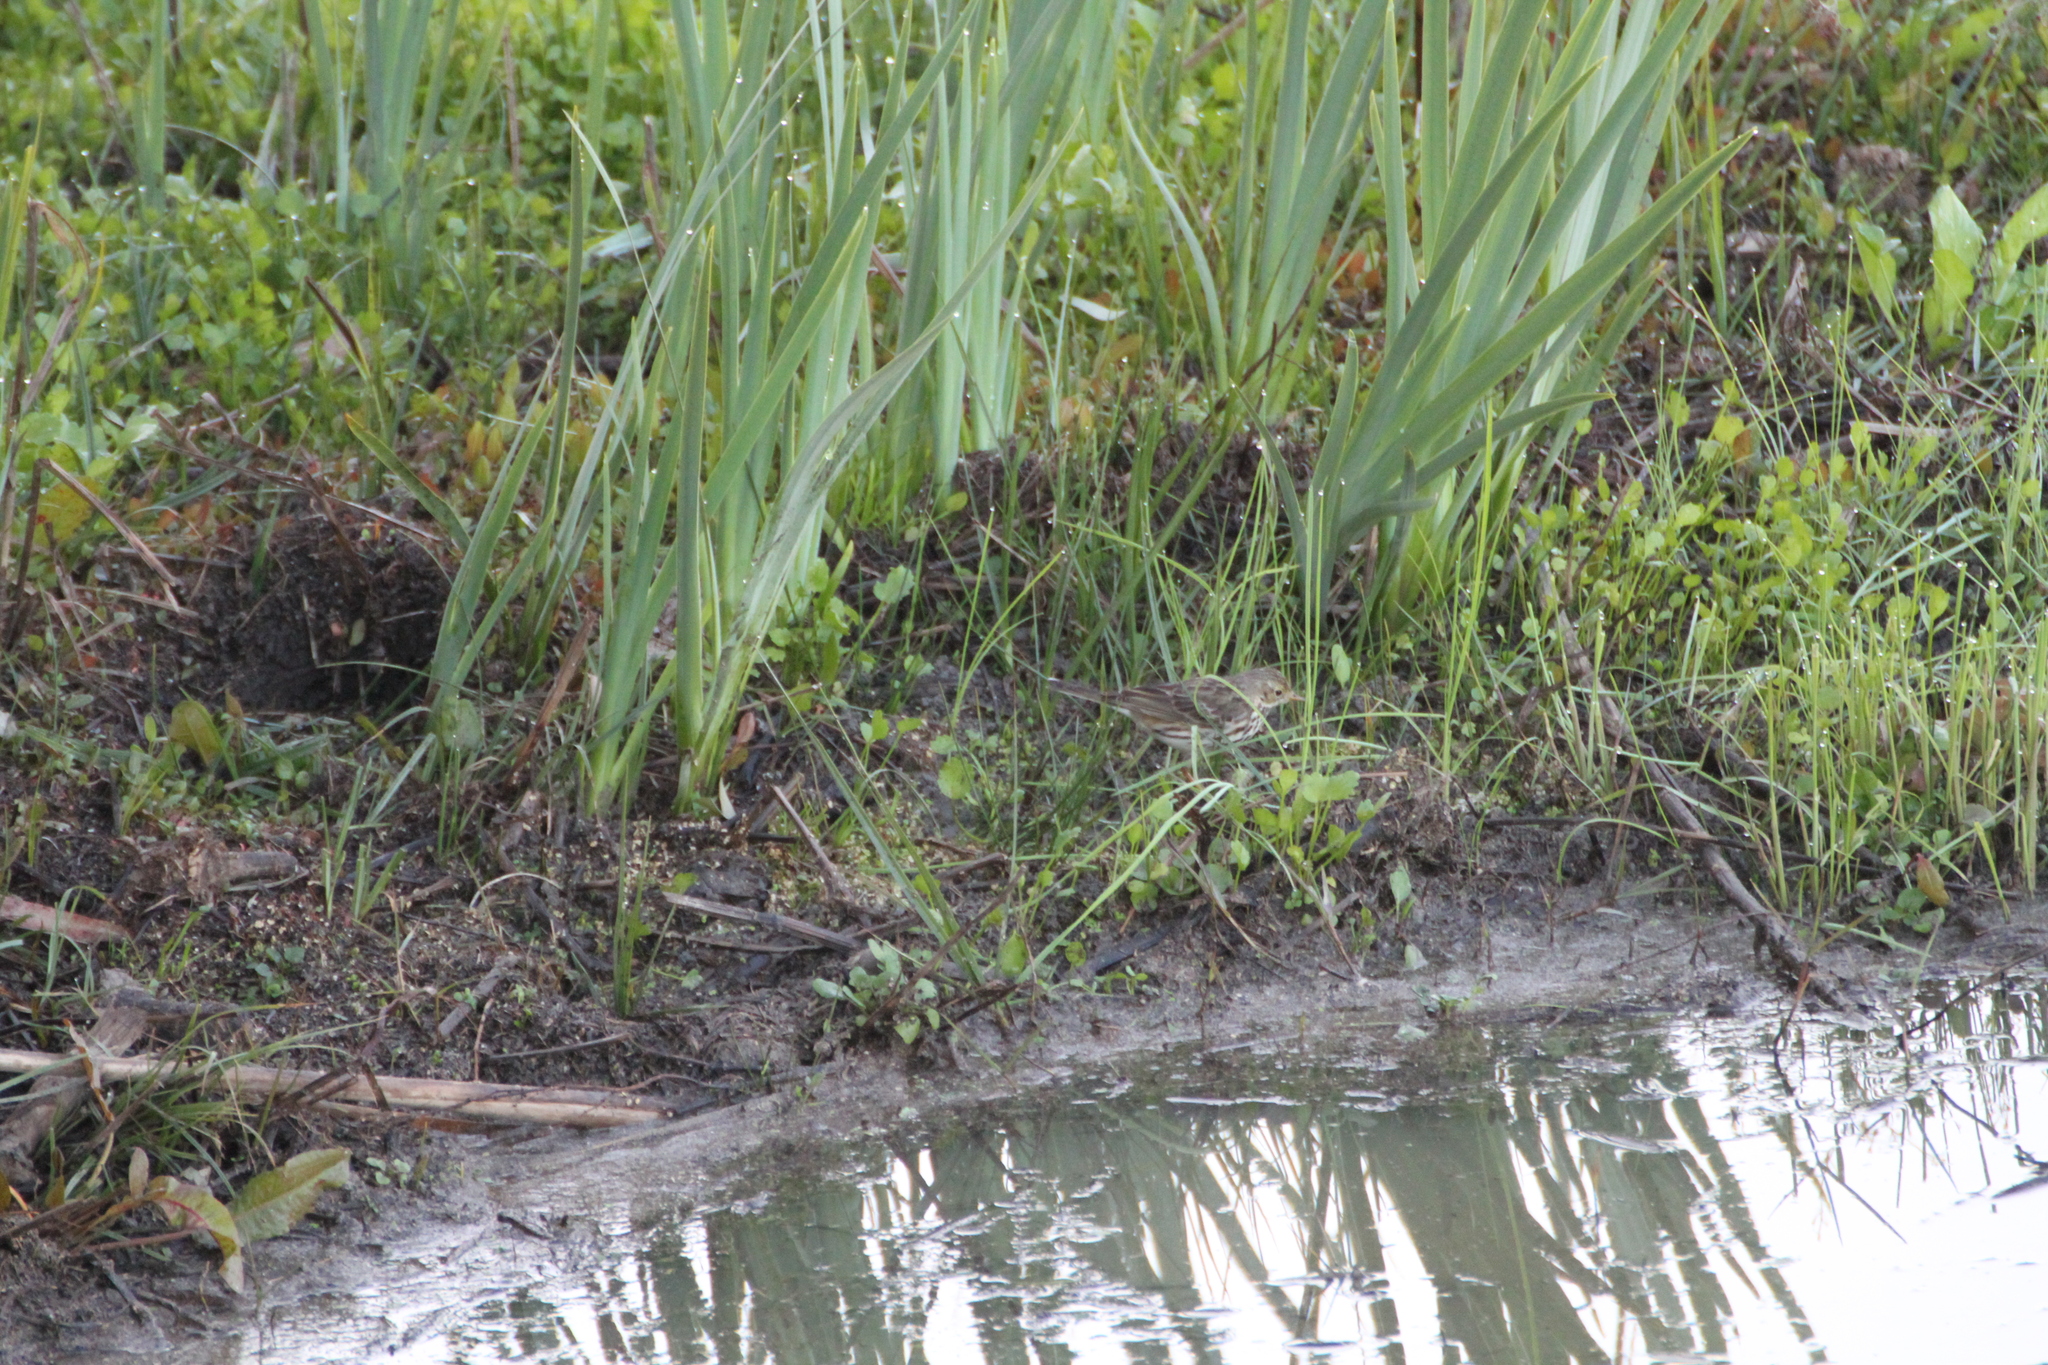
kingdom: Animalia
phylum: Chordata
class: Aves
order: Passeriformes
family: Motacillidae
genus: Anthus
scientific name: Anthus pratensis
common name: Meadow pipit
